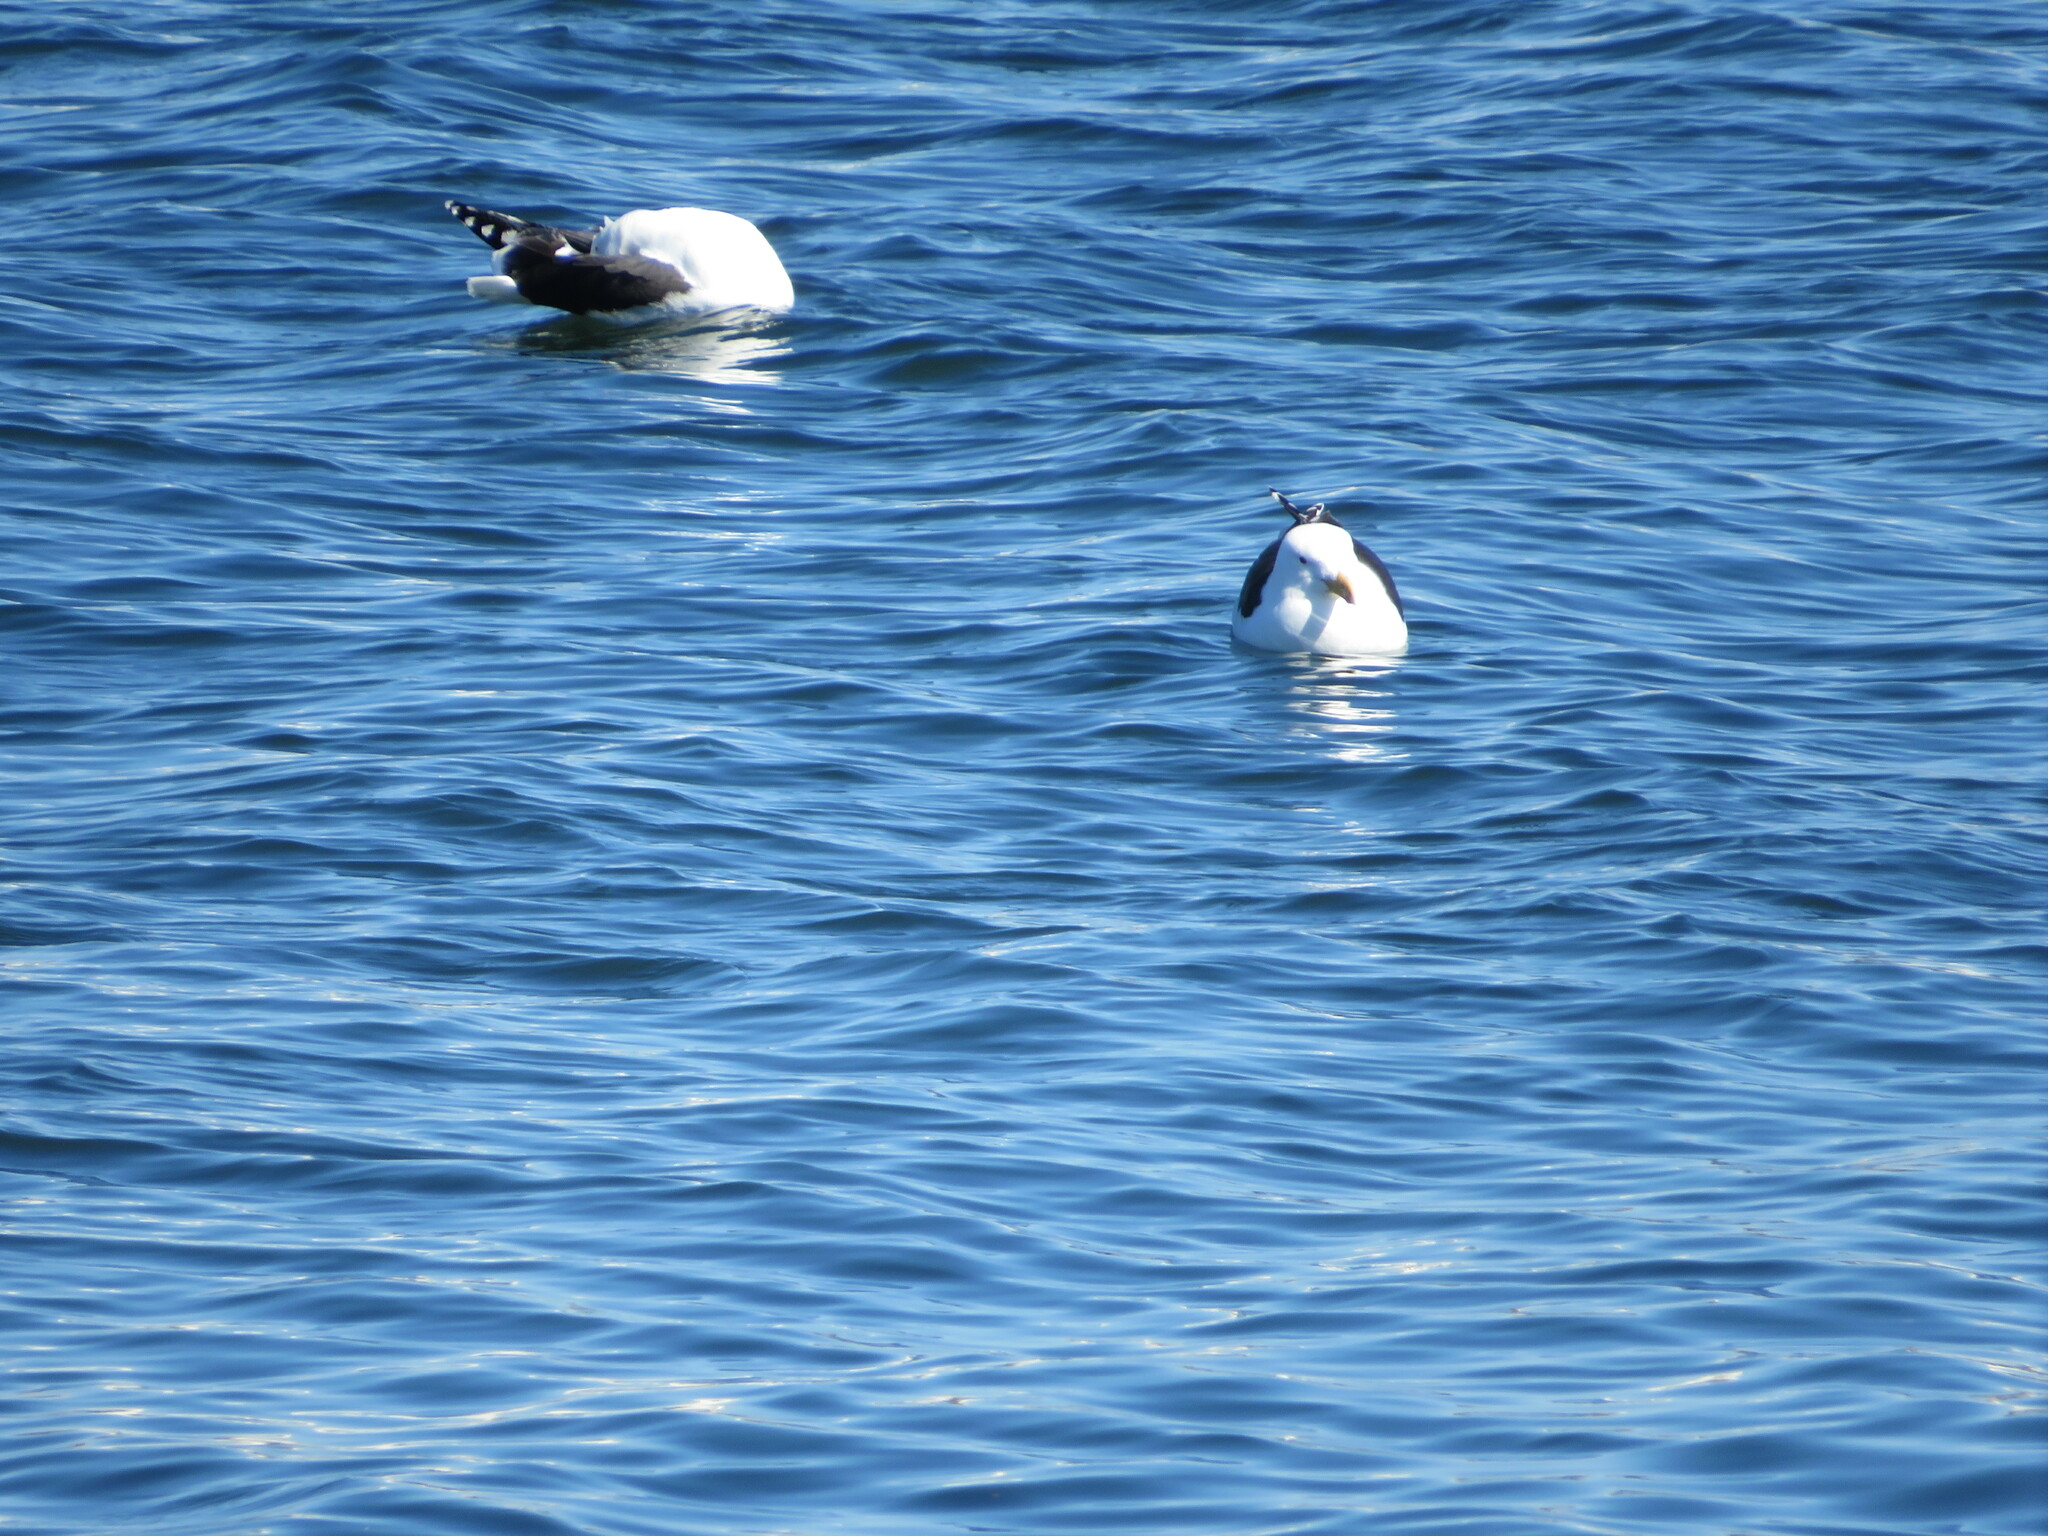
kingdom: Animalia
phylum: Chordata
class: Aves
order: Charadriiformes
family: Laridae
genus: Larus
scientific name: Larus marinus
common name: Great black-backed gull
